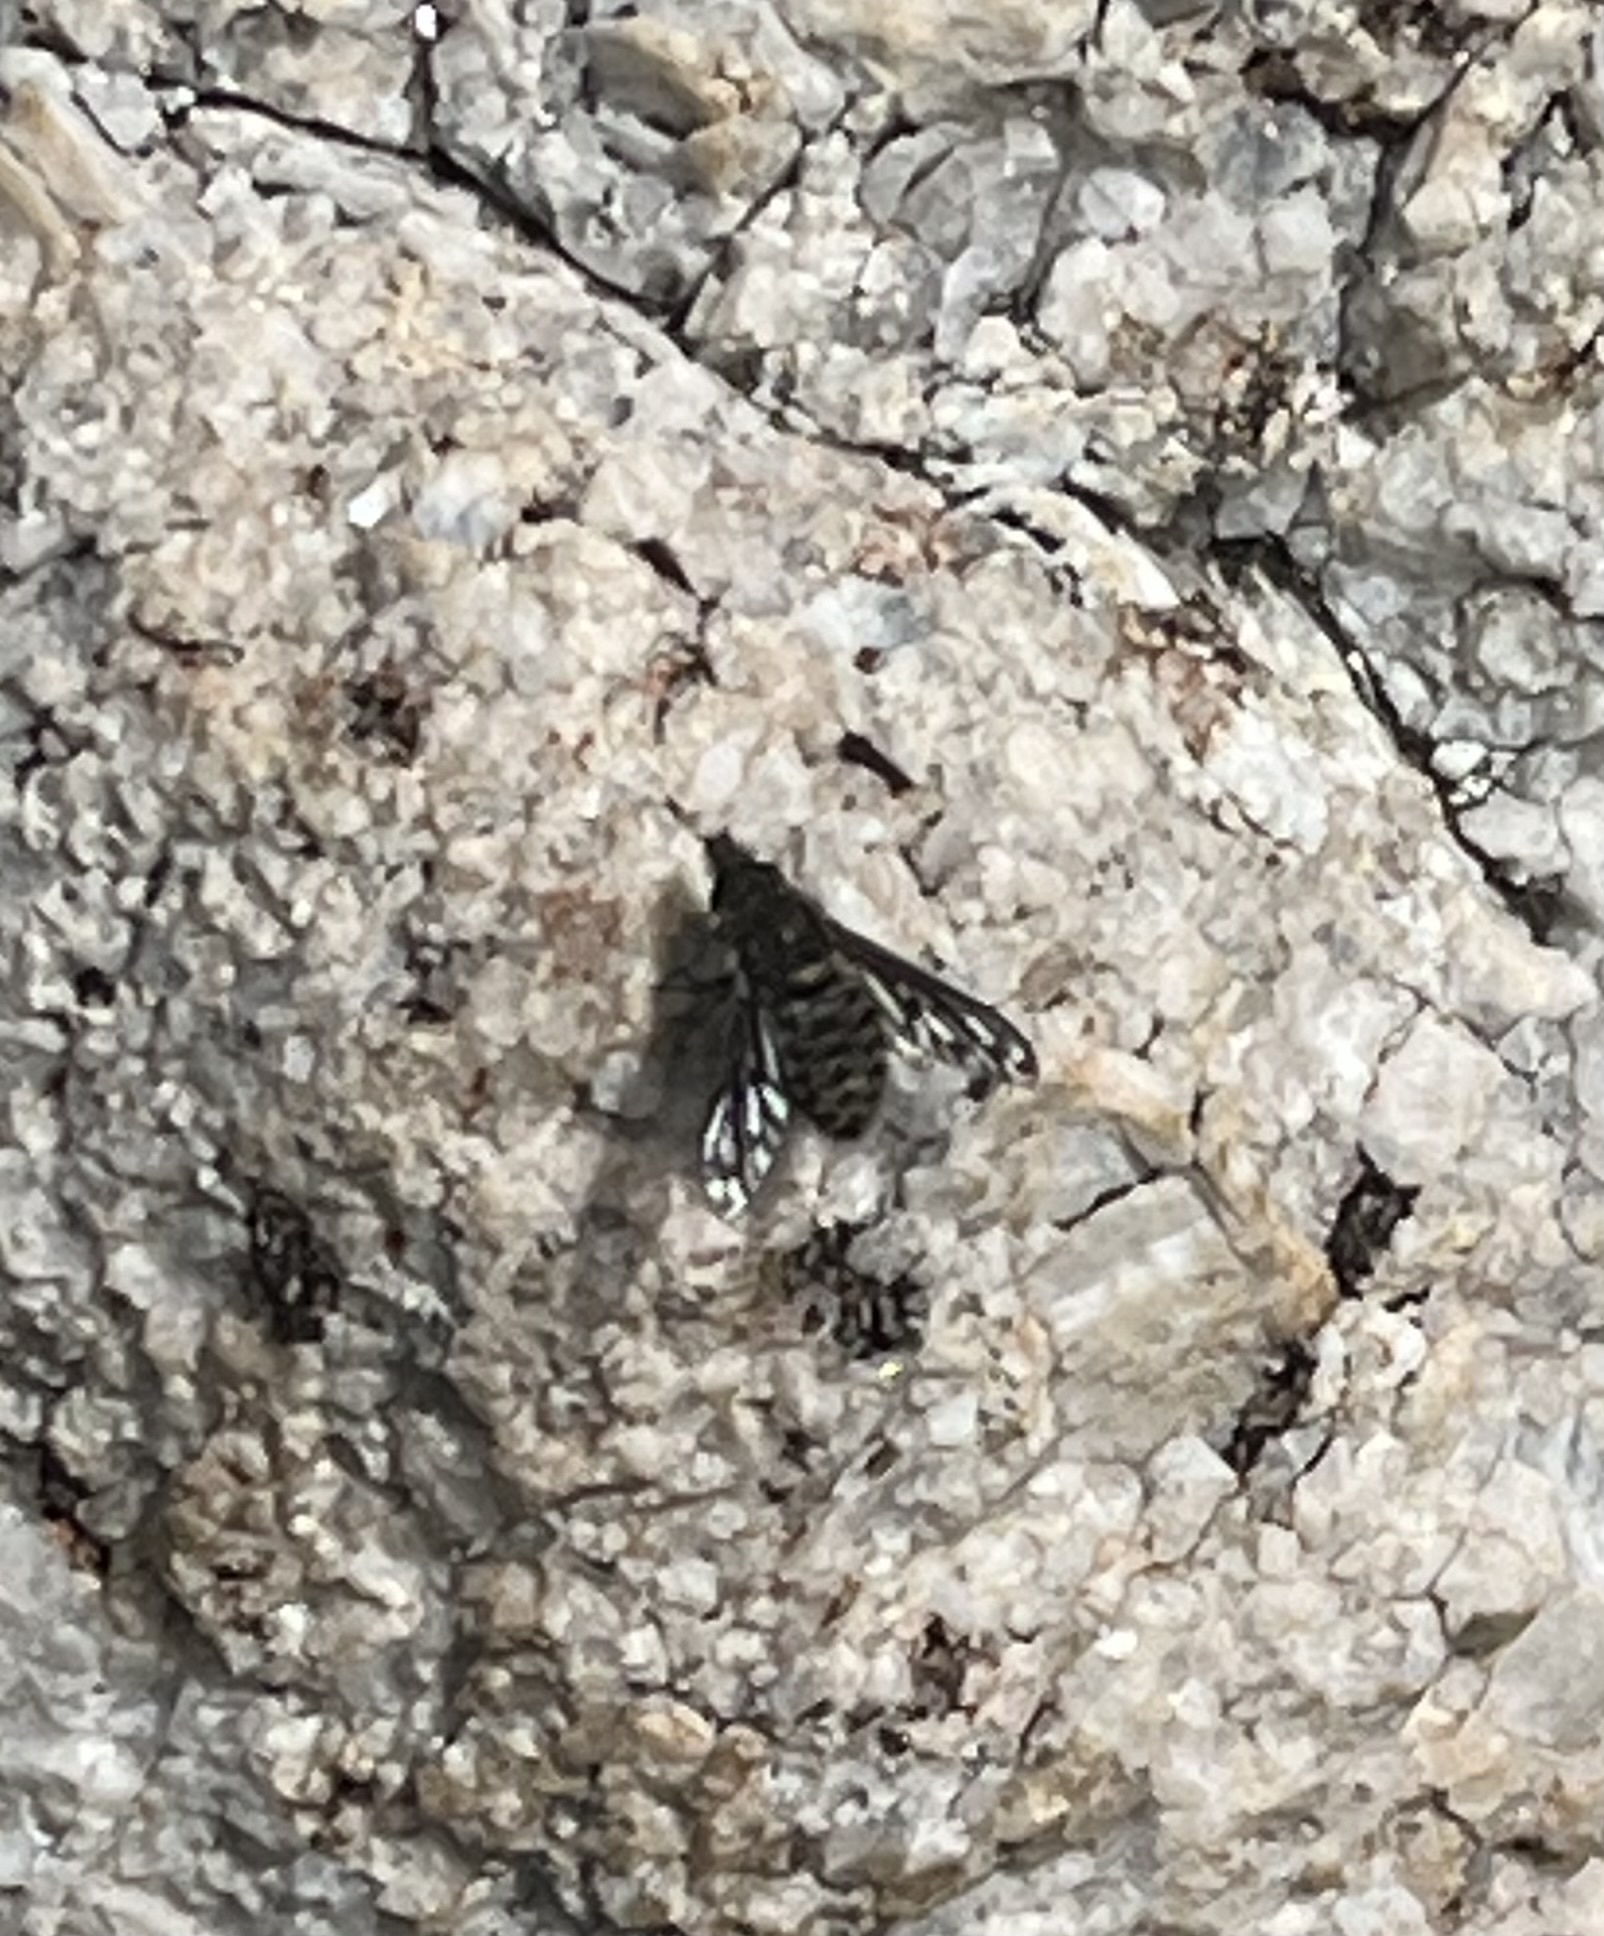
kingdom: Animalia
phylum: Arthropoda
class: Insecta
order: Diptera
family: Bombyliidae
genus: Conophorus
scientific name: Conophorus fenestratus
